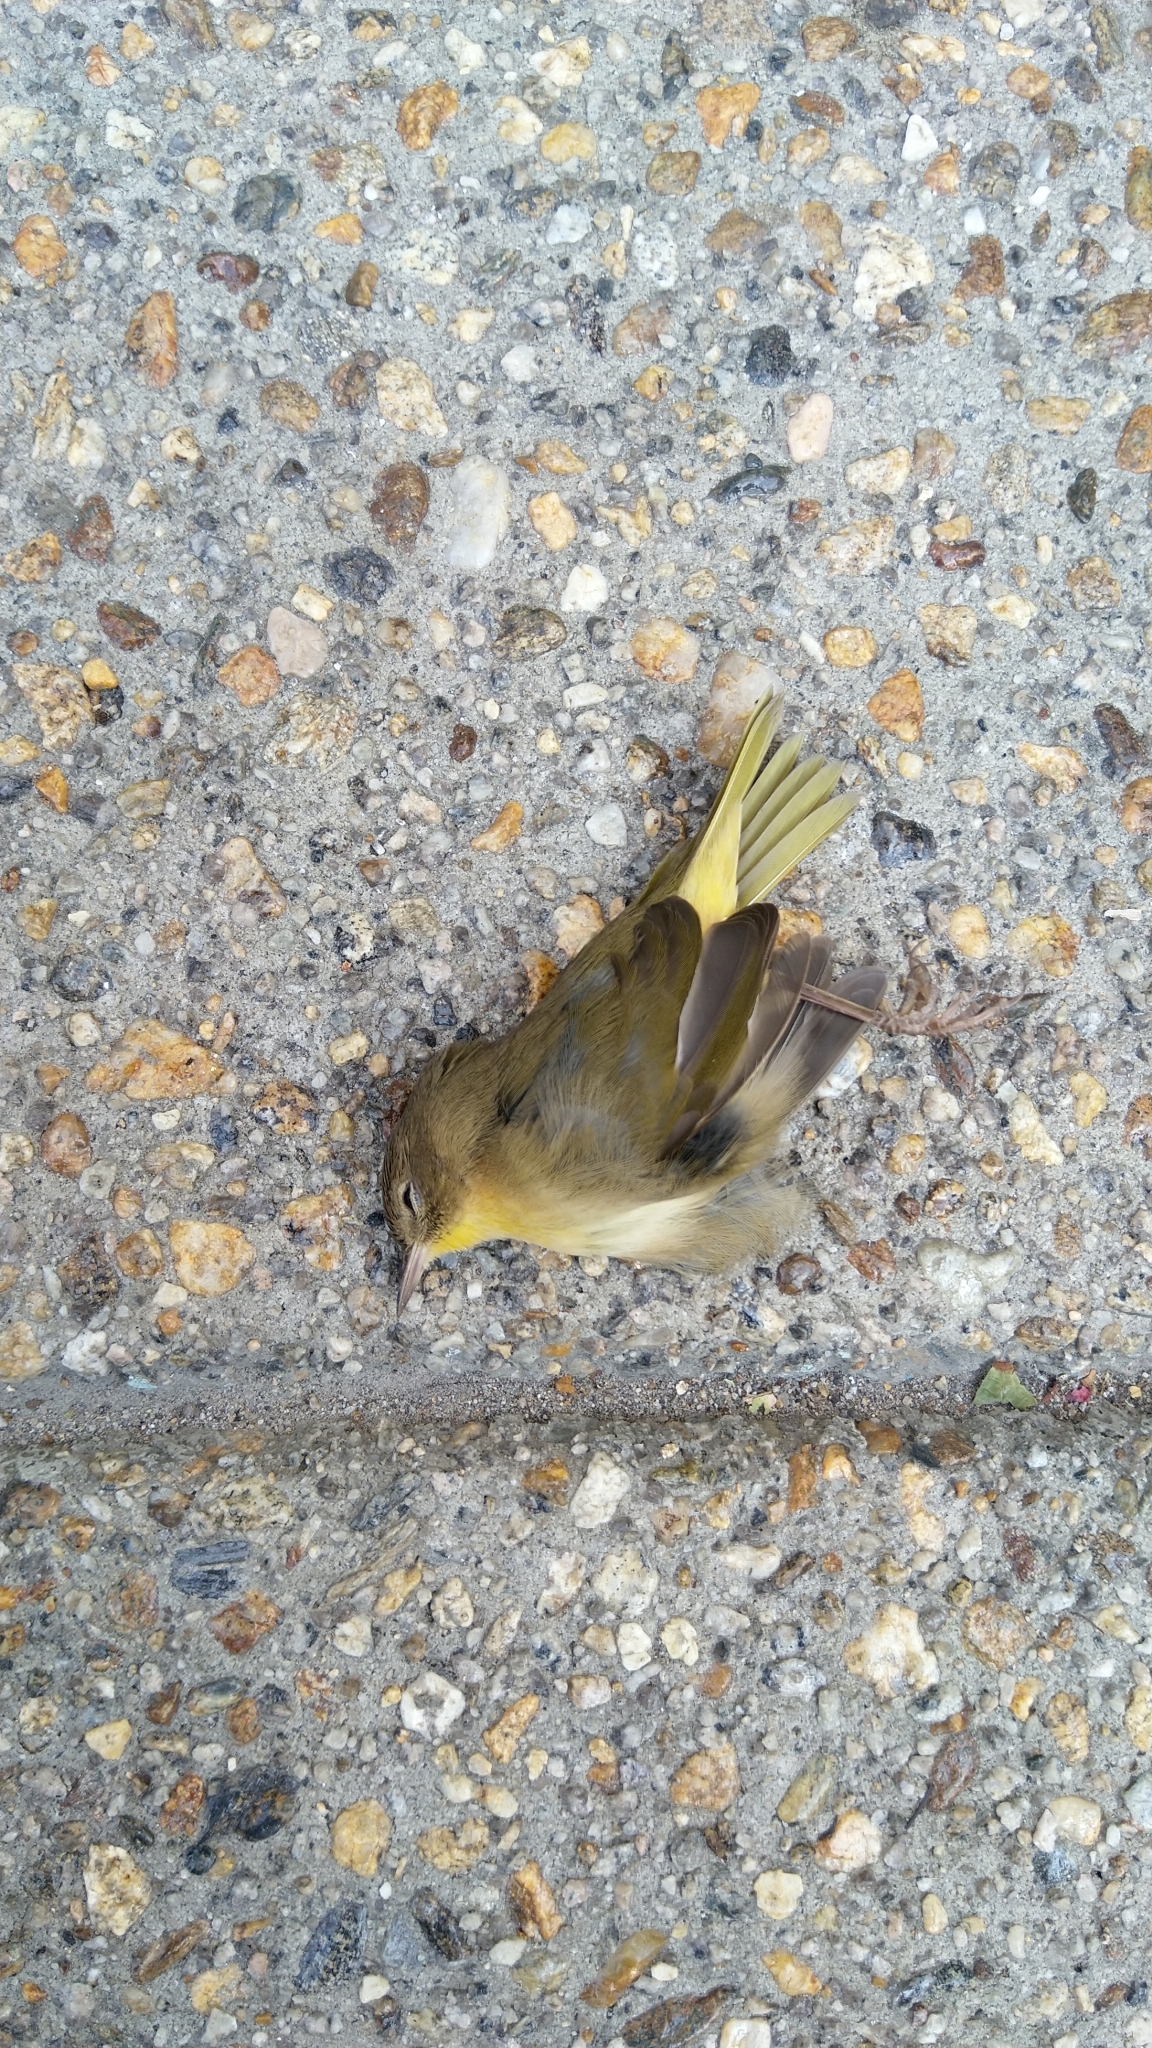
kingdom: Animalia
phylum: Chordata
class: Aves
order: Passeriformes
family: Parulidae
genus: Geothlypis
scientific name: Geothlypis trichas
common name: Common yellowthroat
